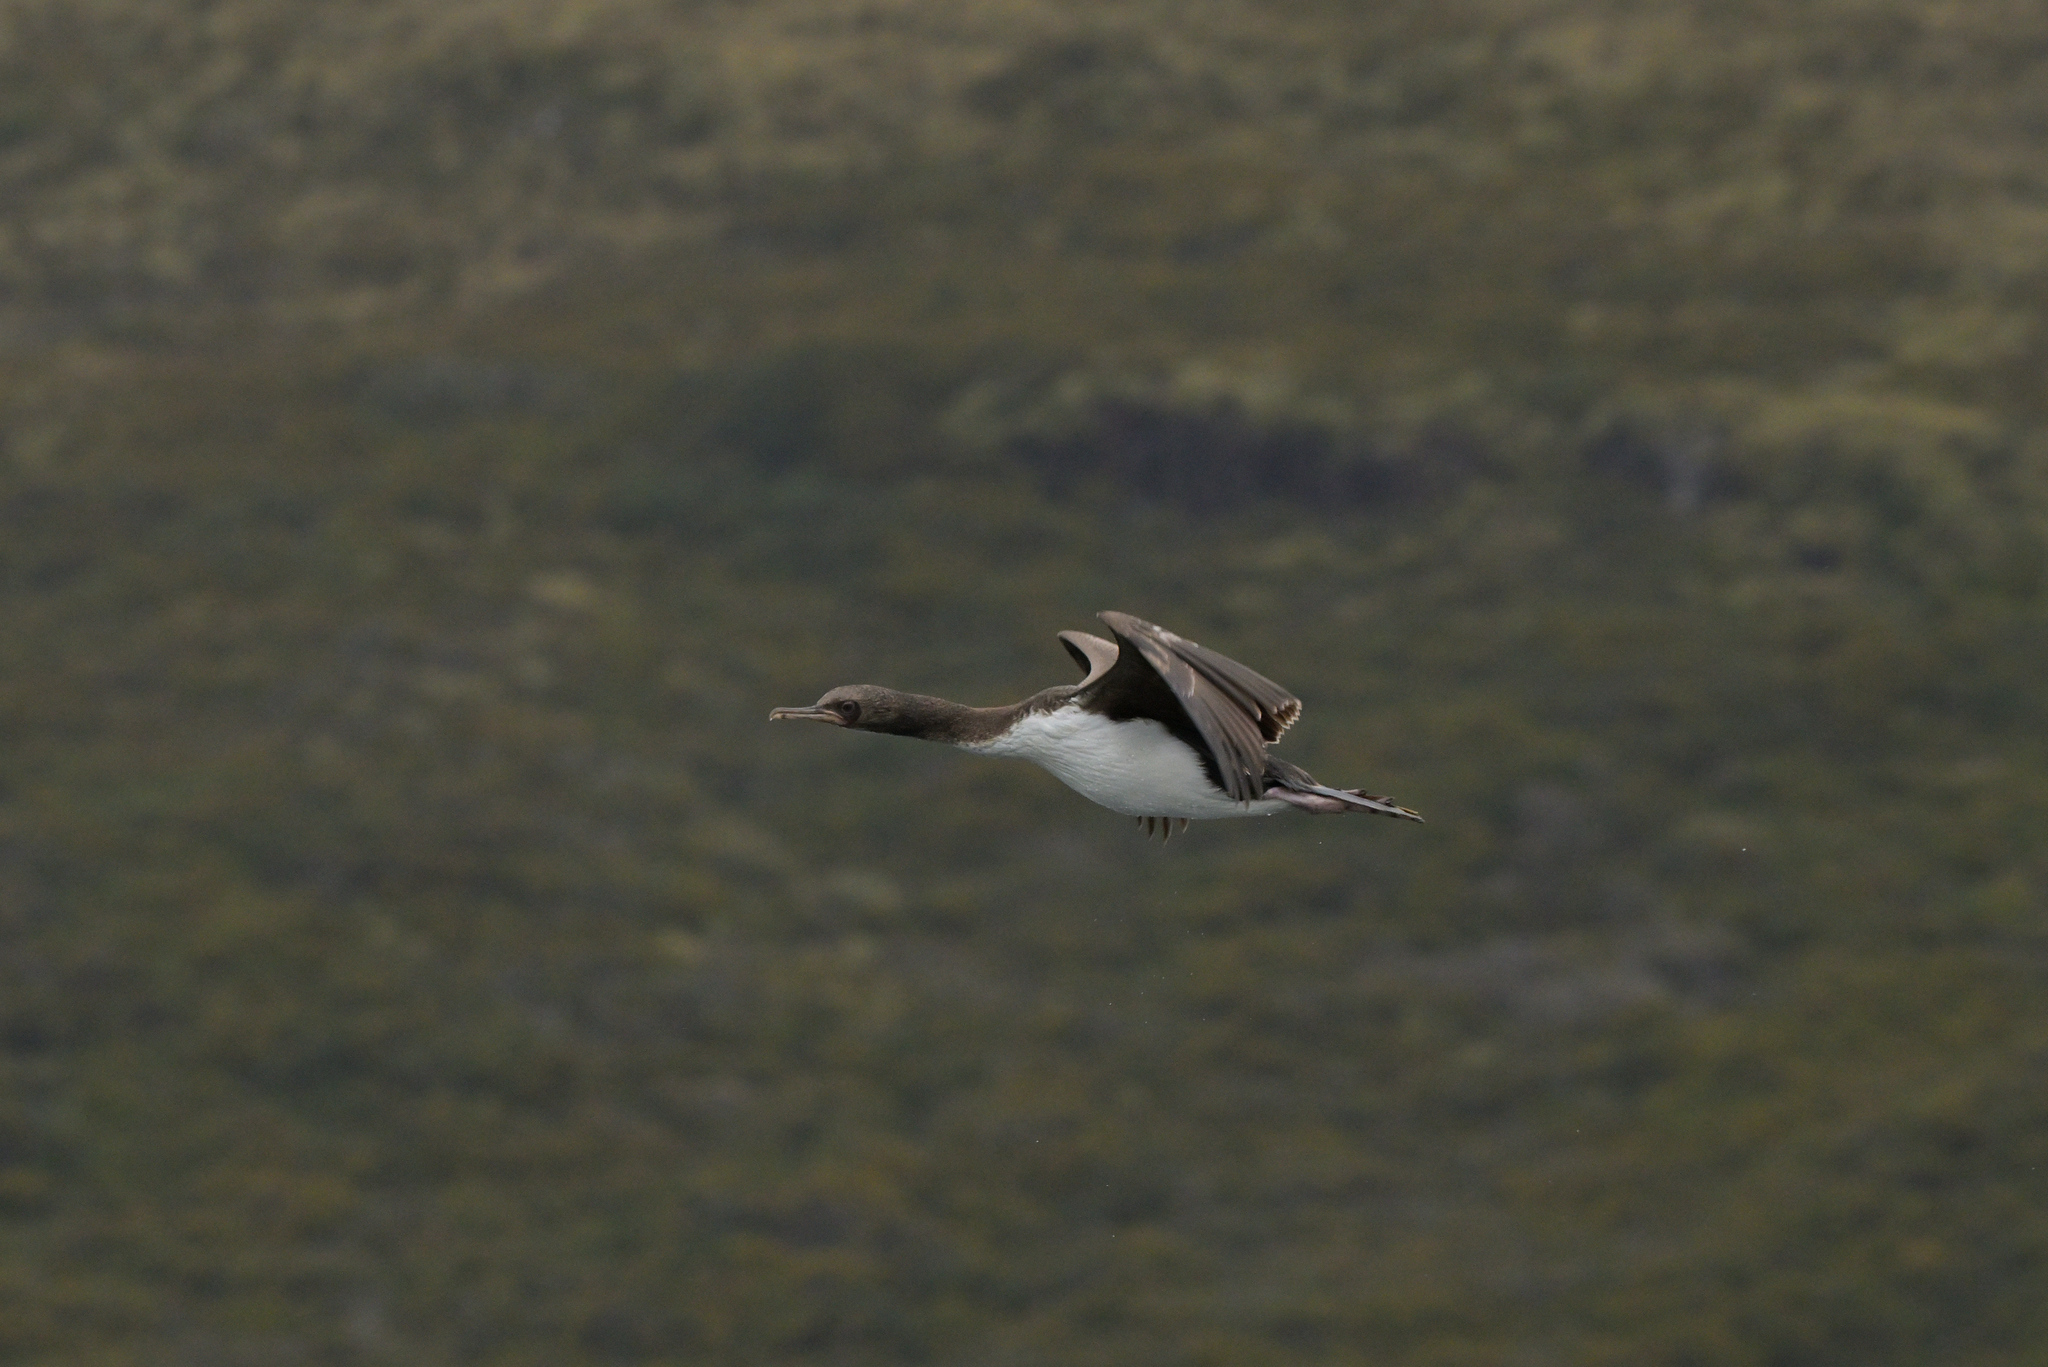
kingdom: Animalia
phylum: Chordata
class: Aves
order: Suliformes
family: Phalacrocoracidae
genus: Leucocarbo
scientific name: Leucocarbo colensoi
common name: Auckland shag
